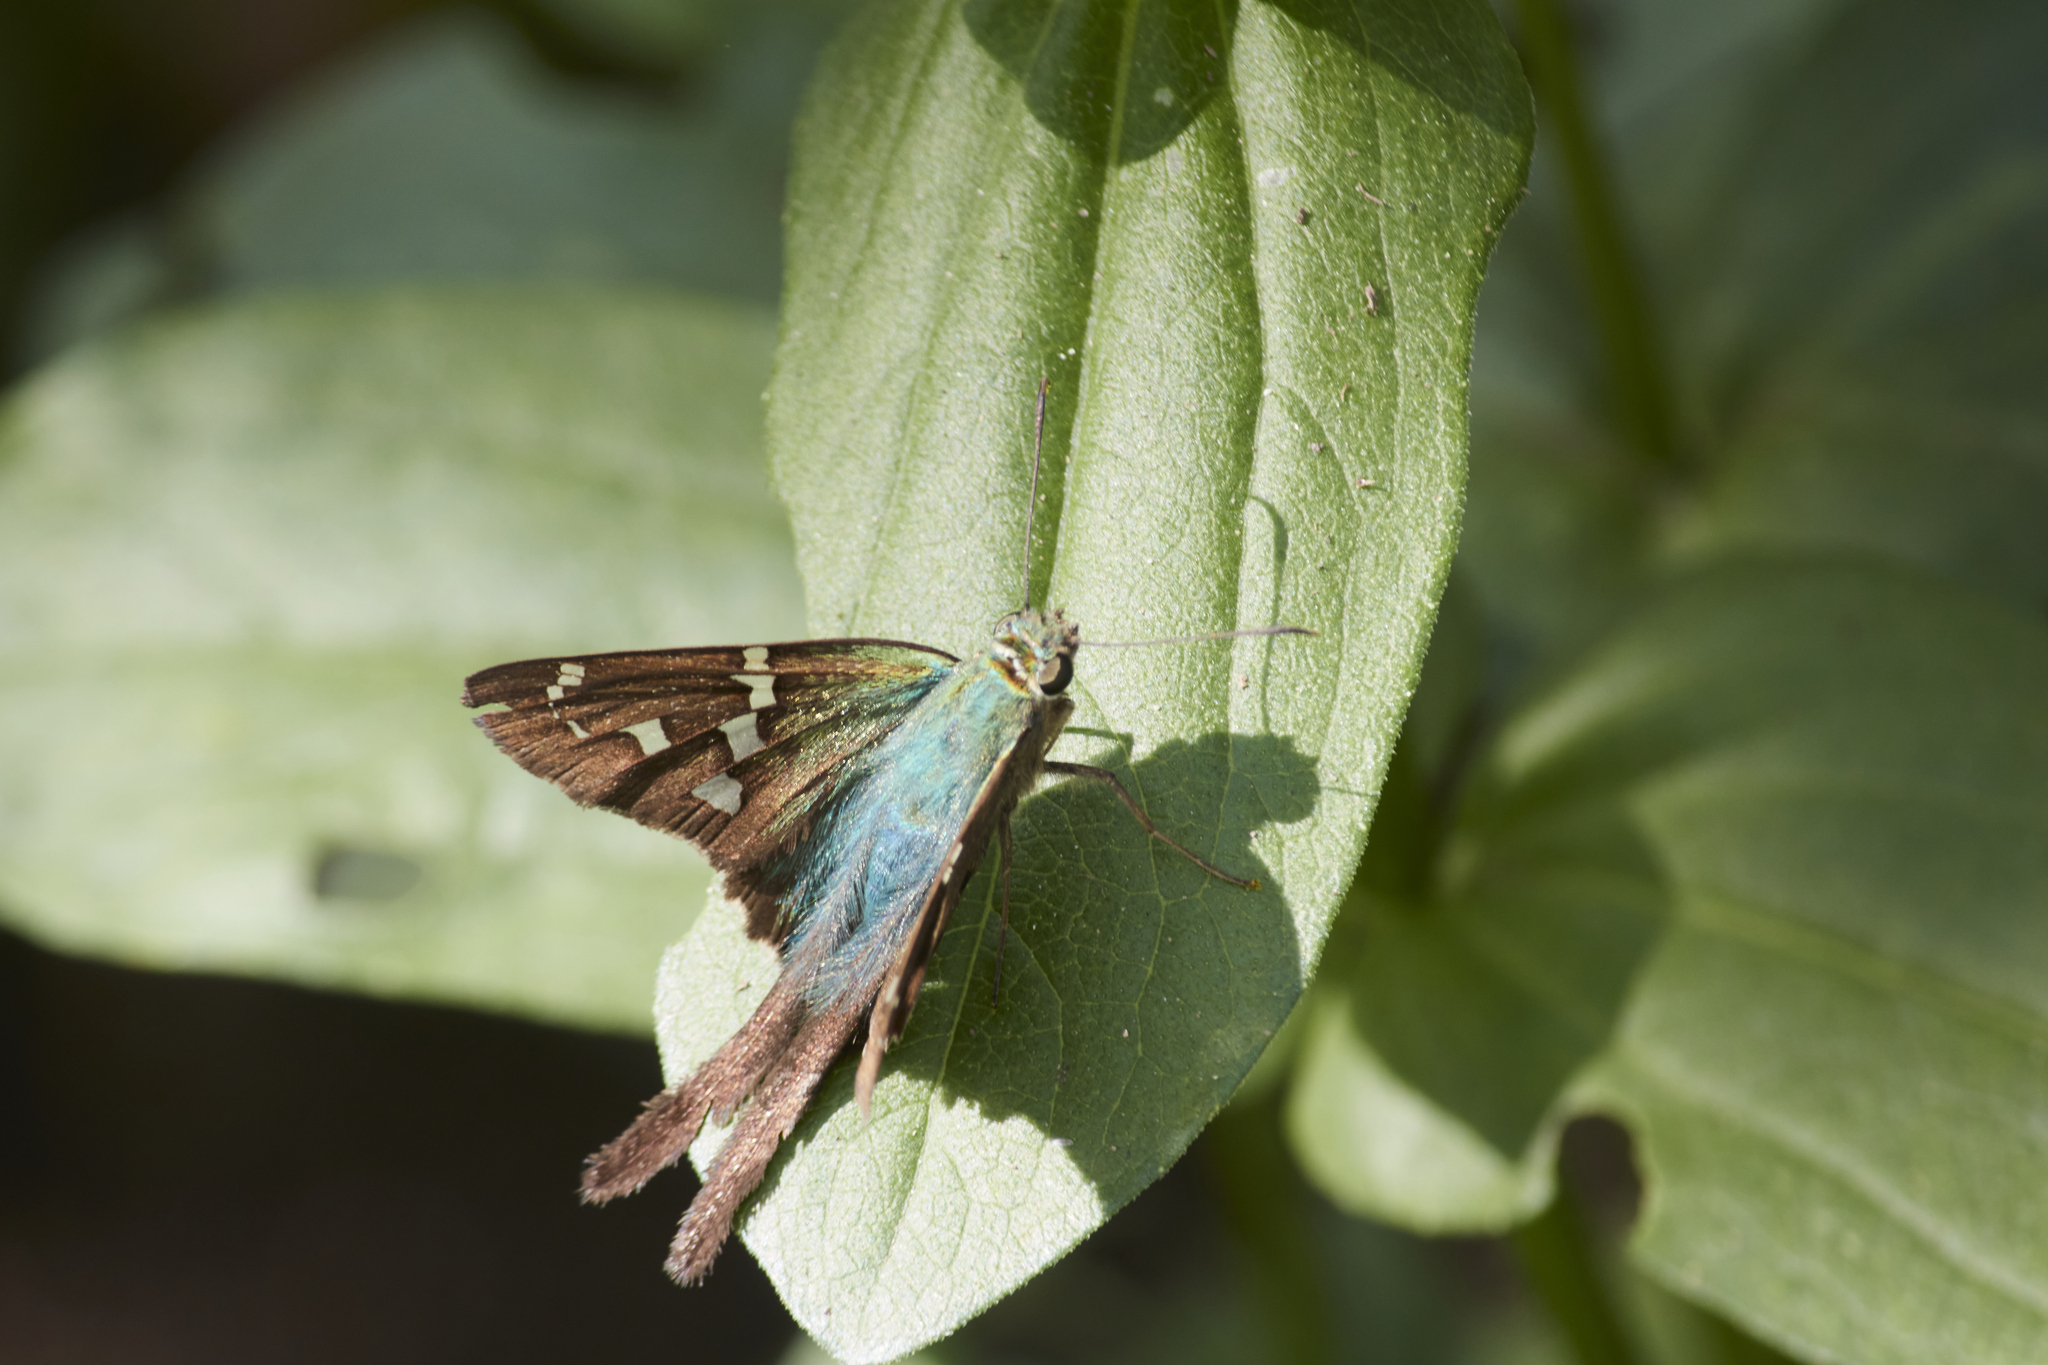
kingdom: Animalia
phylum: Arthropoda
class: Insecta
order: Lepidoptera
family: Hesperiidae
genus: Urbanus
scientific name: Urbanus proteus
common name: Long-tailed skipper
